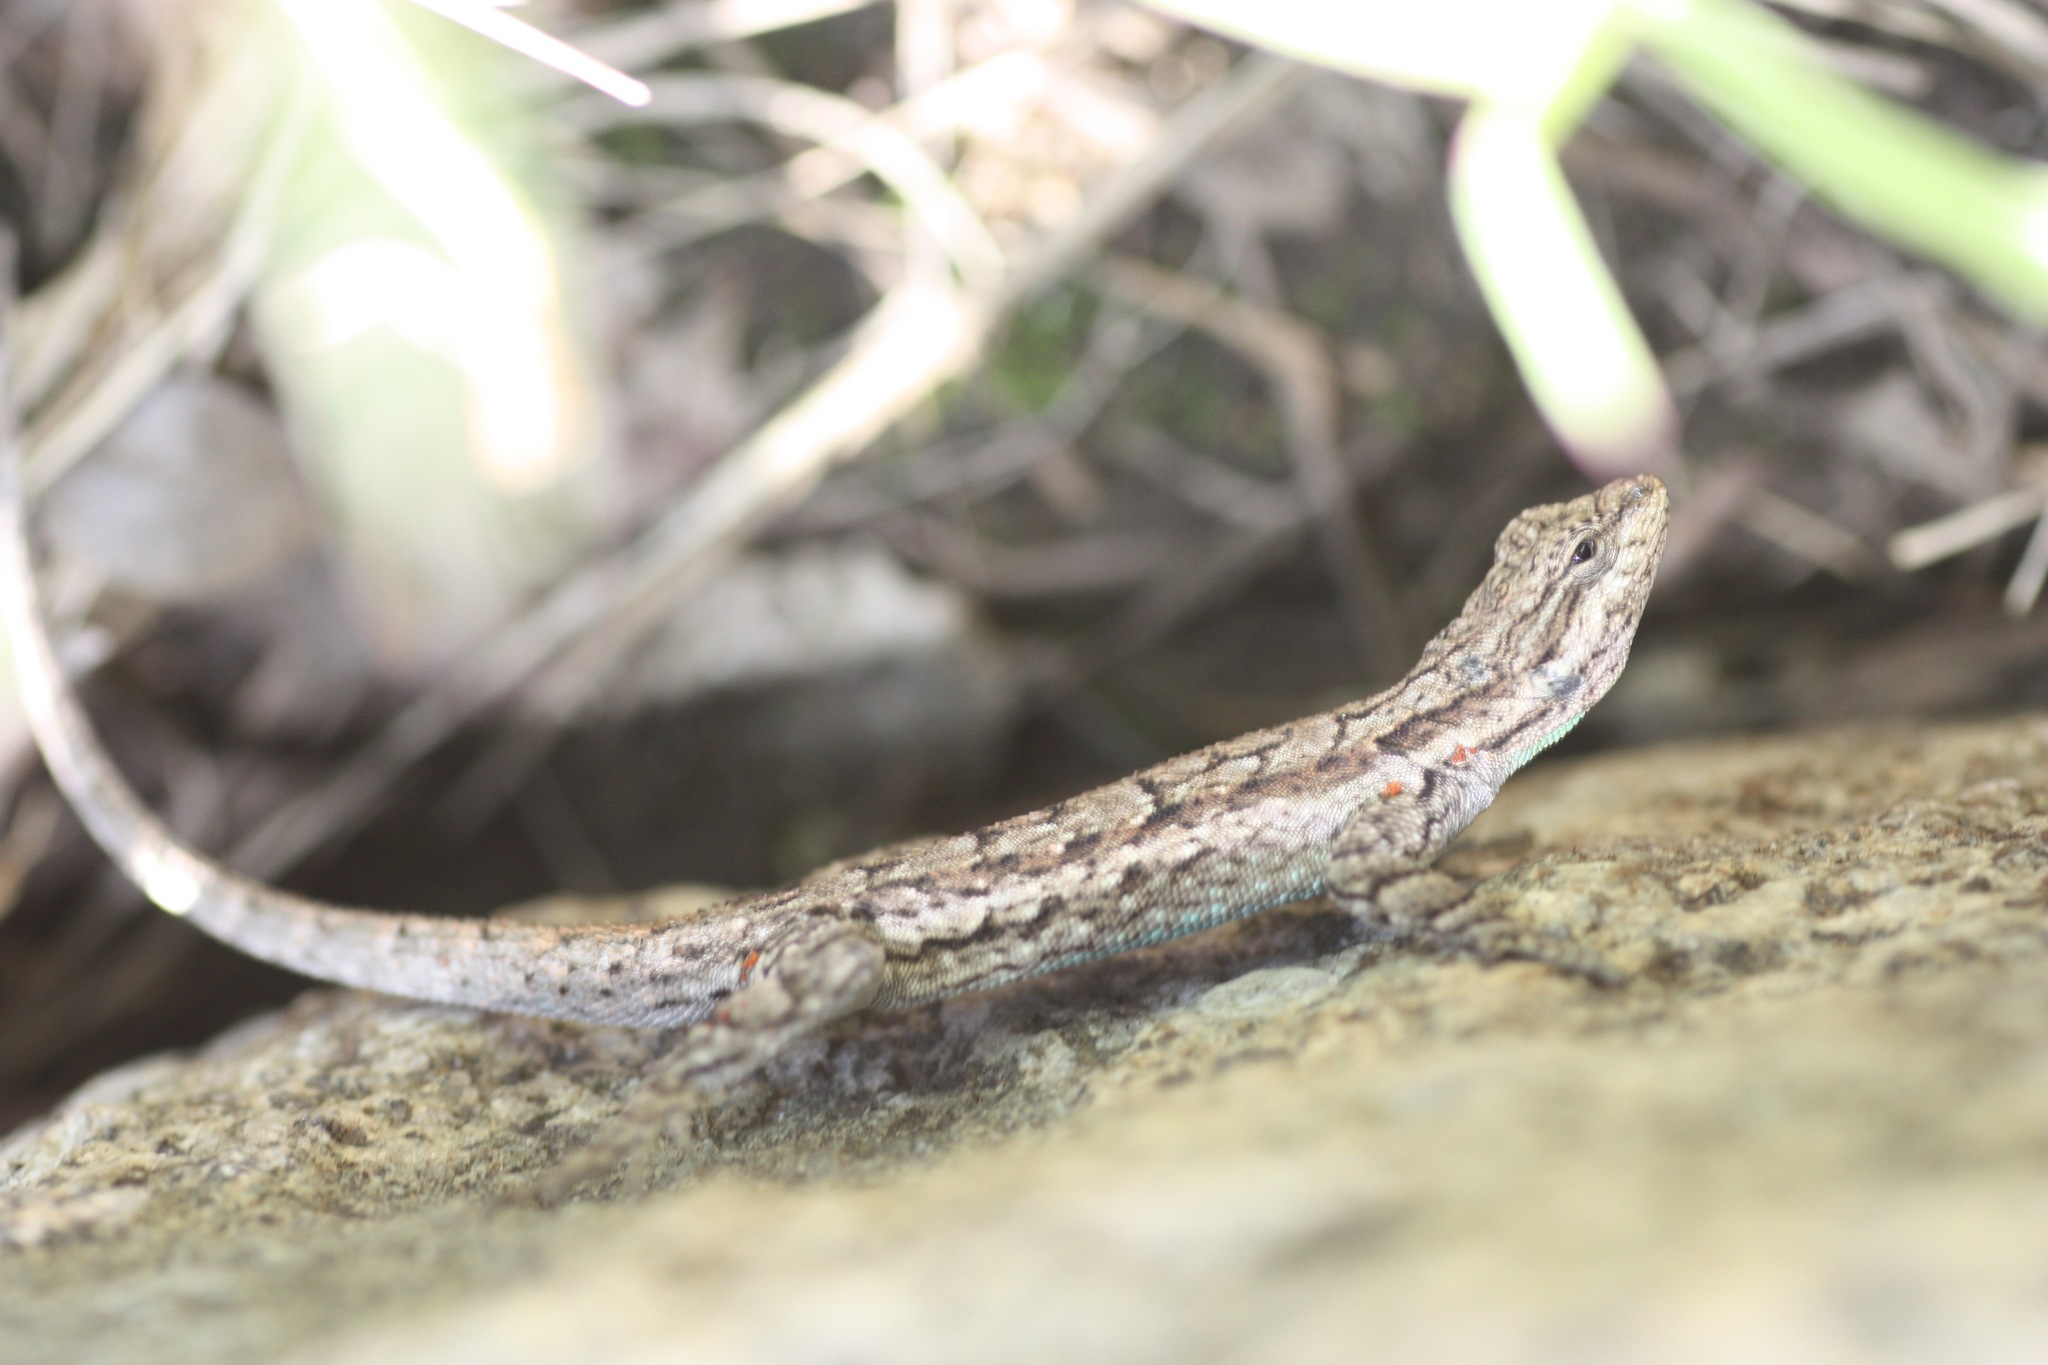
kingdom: Animalia
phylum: Chordata
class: Squamata
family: Phrynosomatidae
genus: Urosaurus
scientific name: Urosaurus ornatus
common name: Ornate tree lizard
